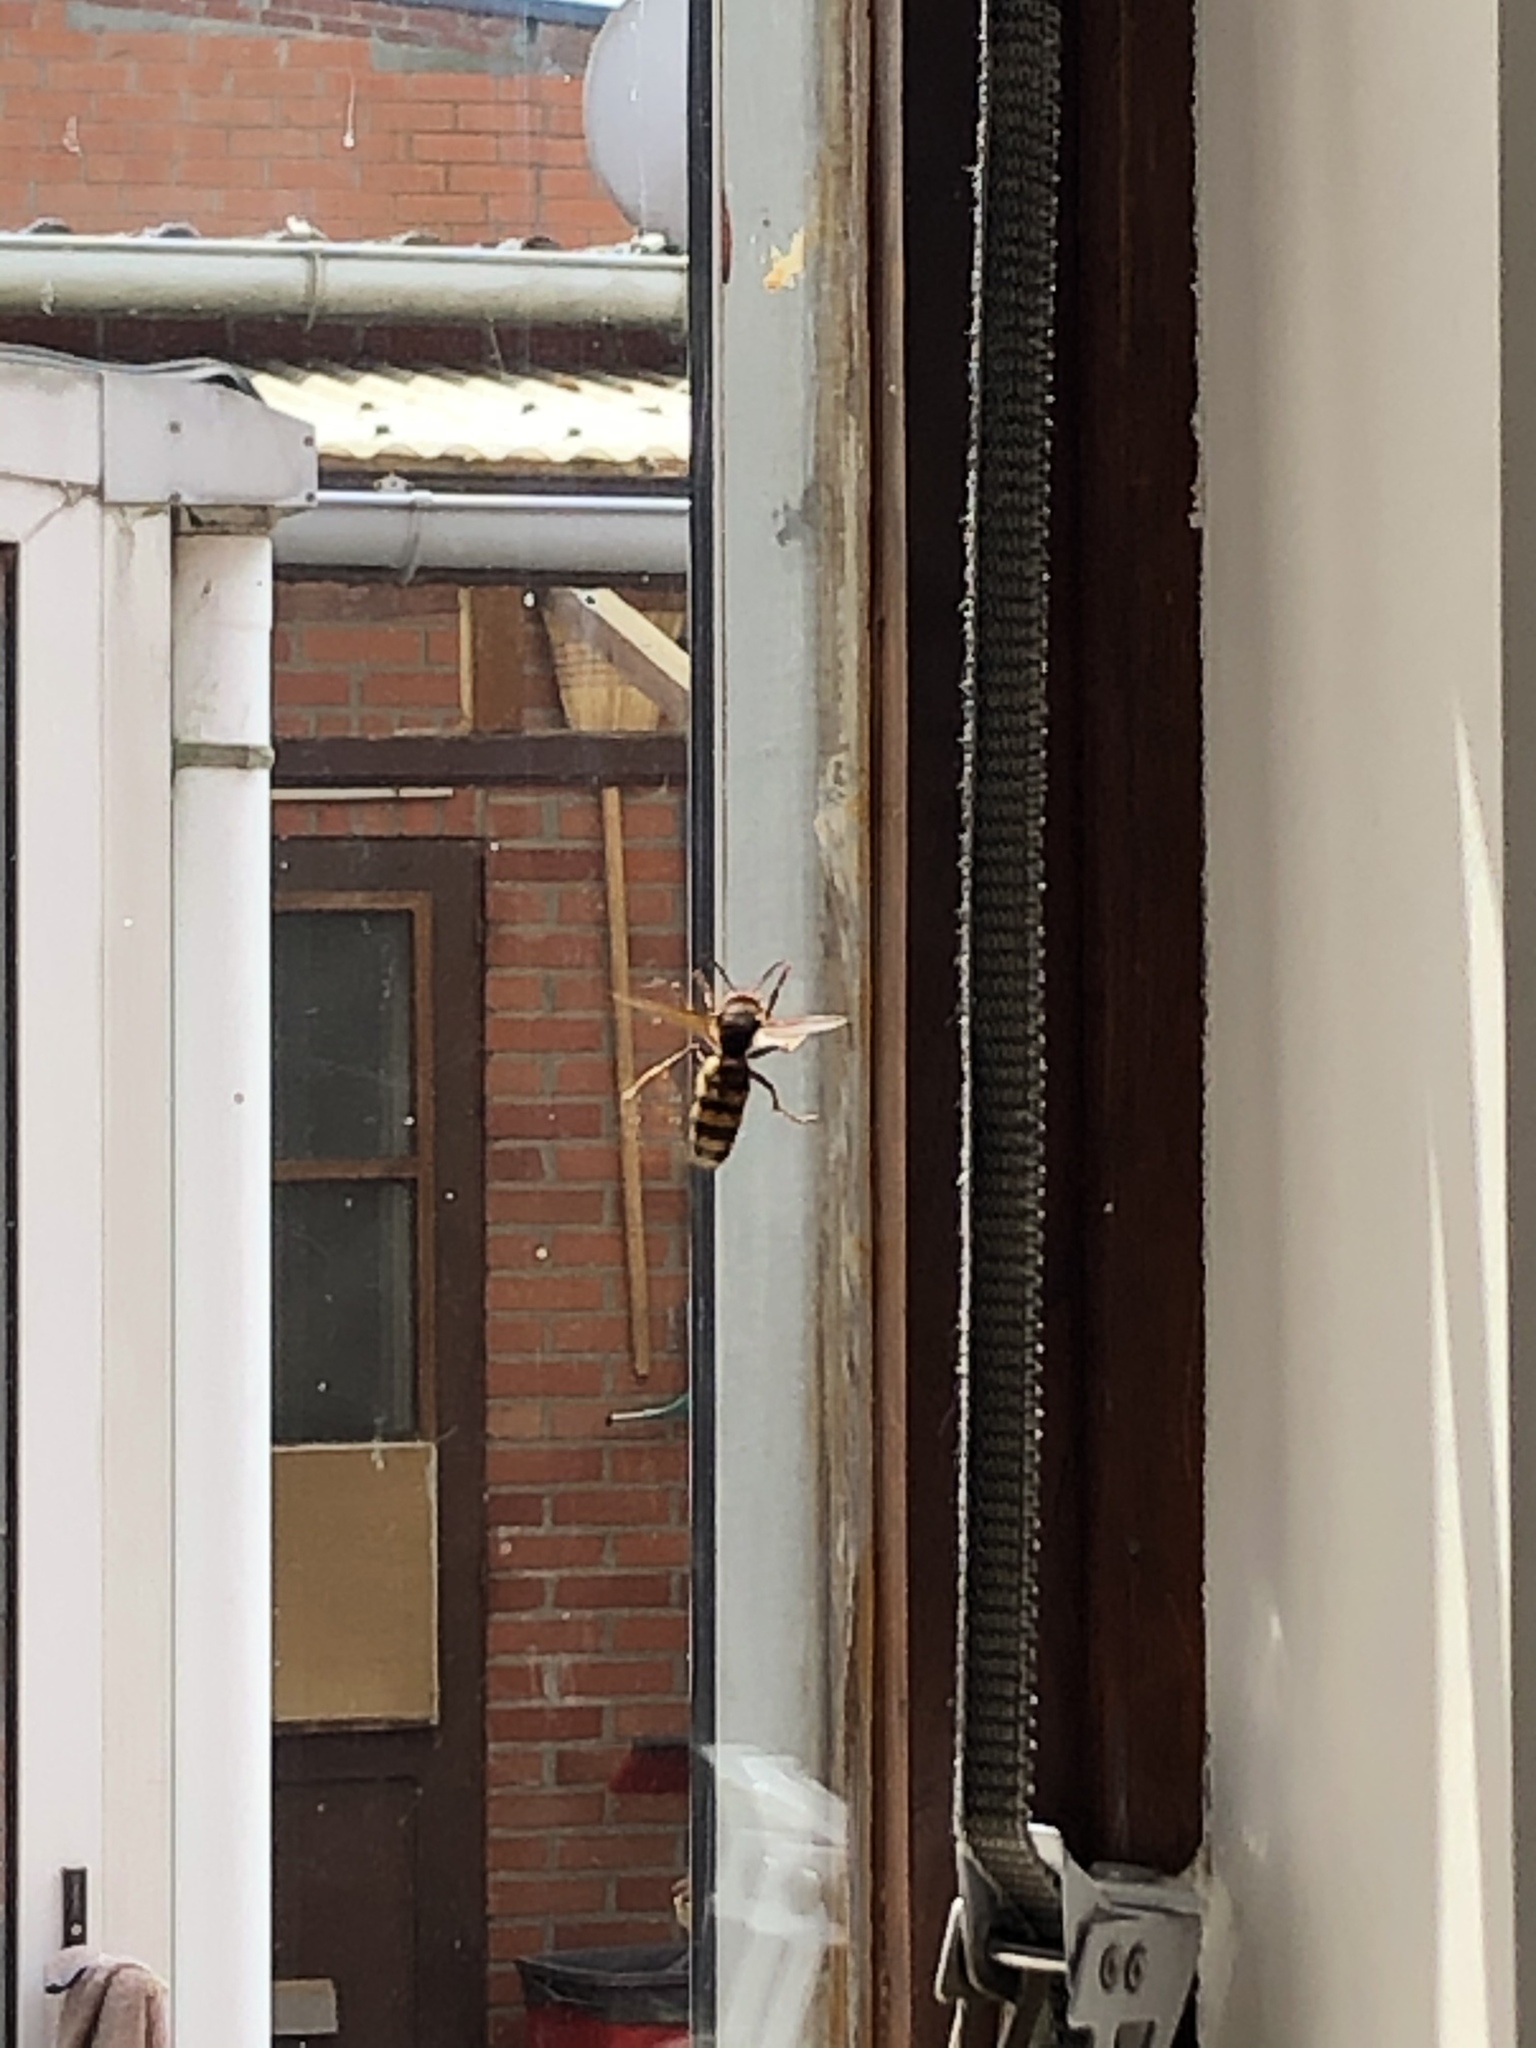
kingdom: Animalia
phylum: Arthropoda
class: Insecta
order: Hymenoptera
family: Vespidae
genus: Vespa
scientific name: Vespa crabro
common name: Hornet
